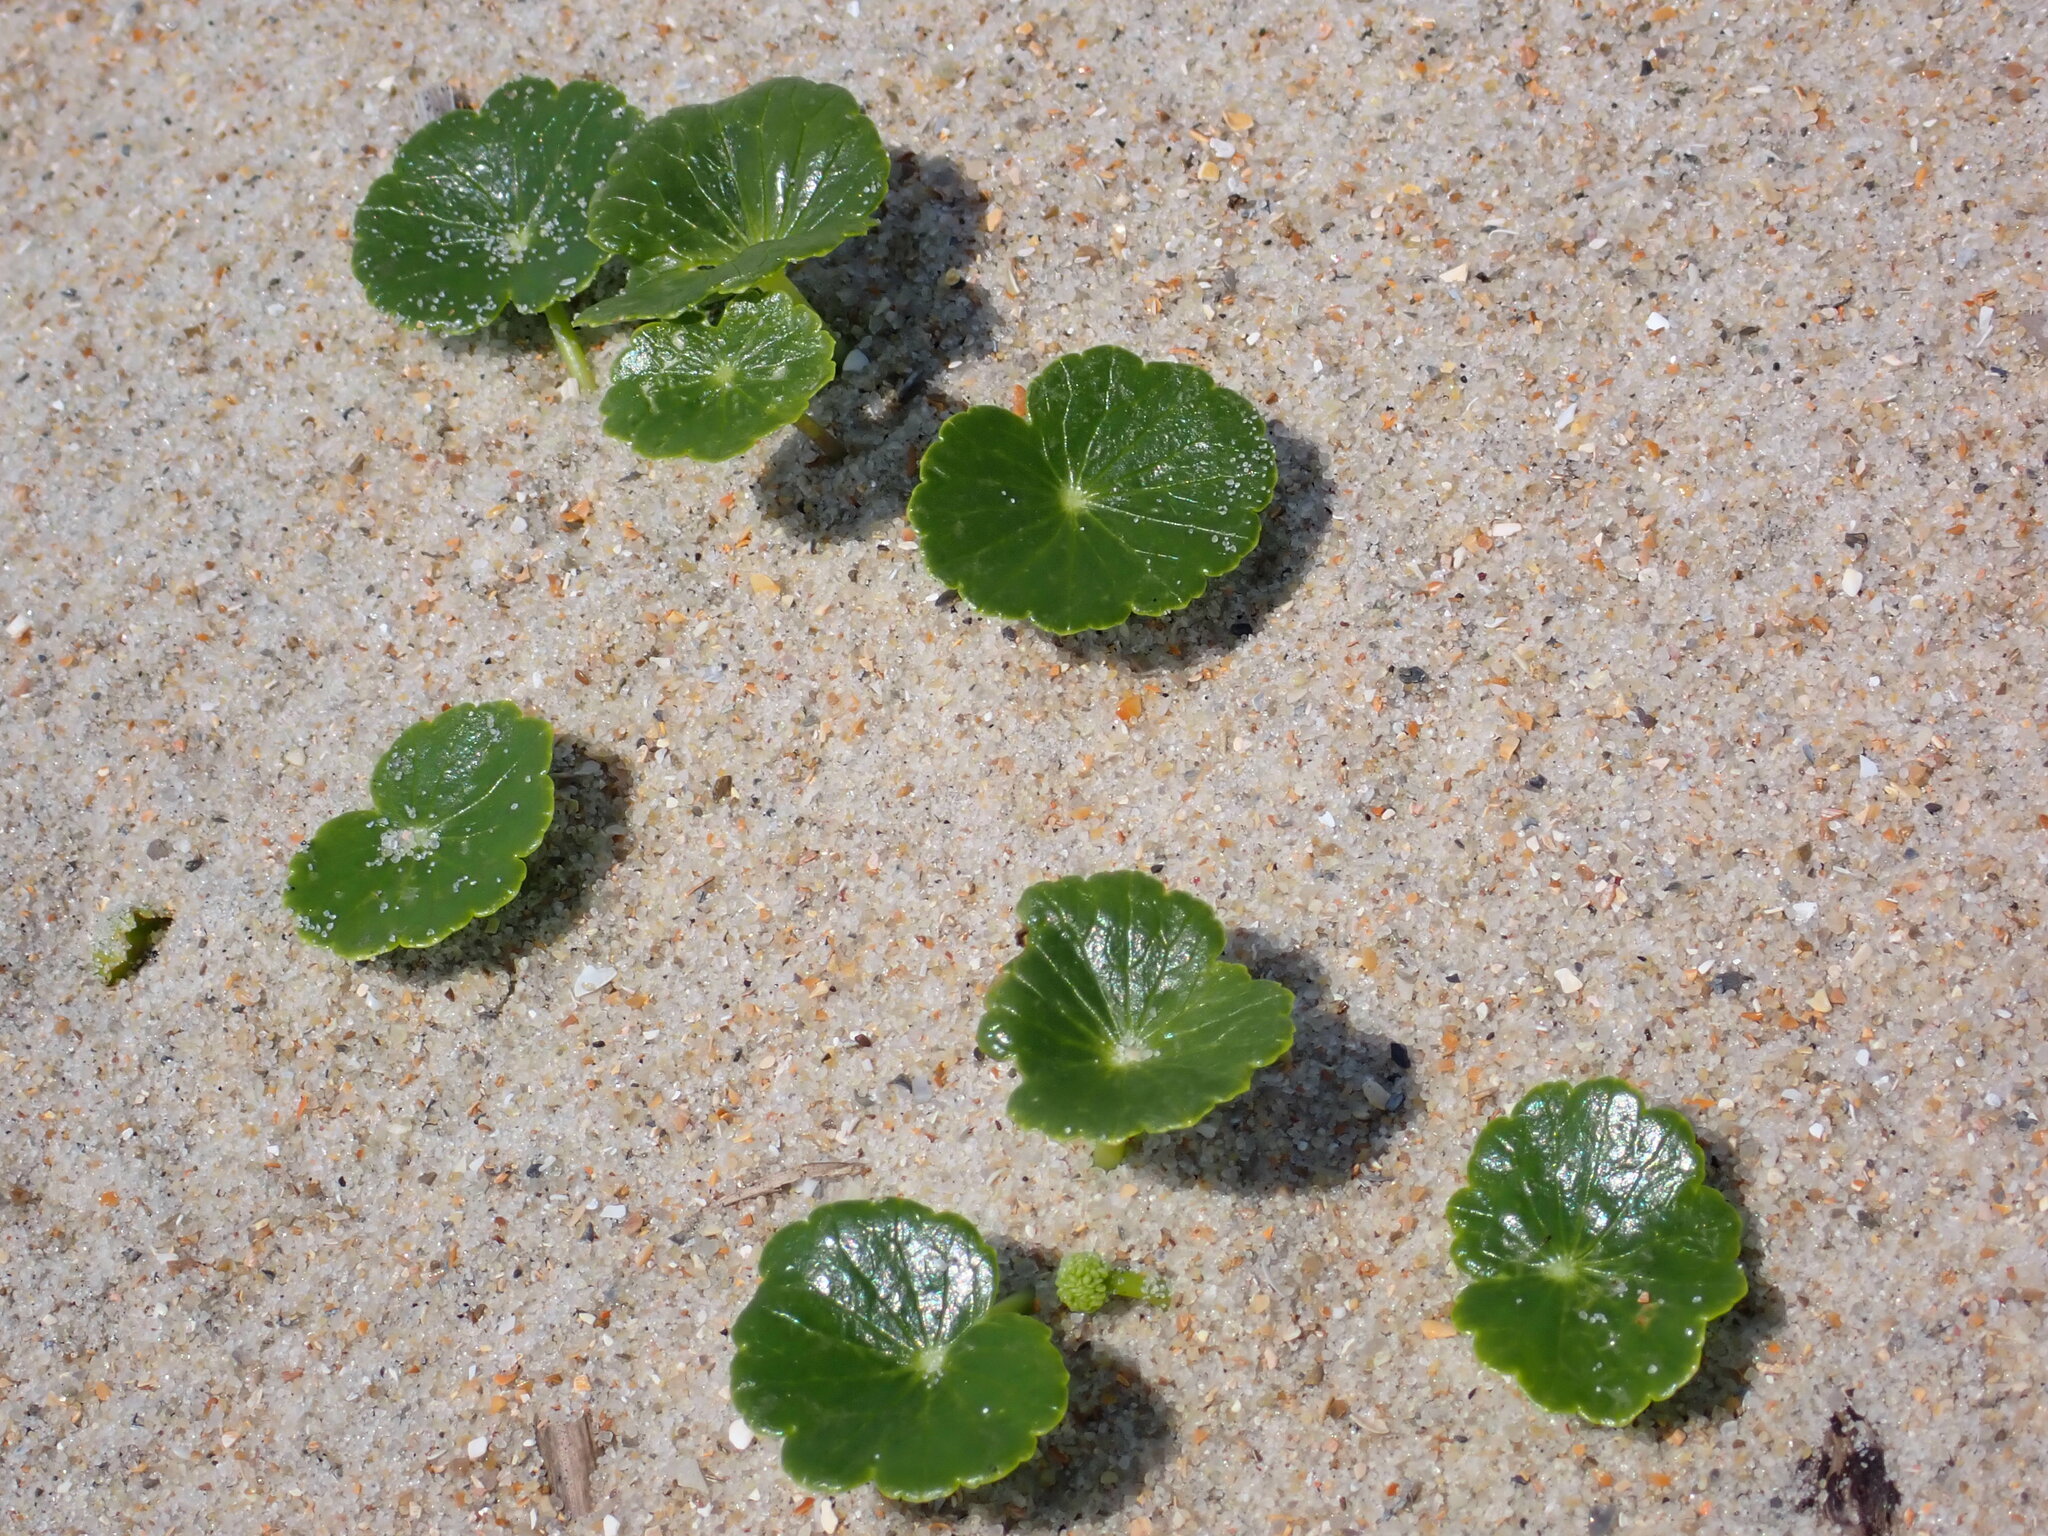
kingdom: Plantae
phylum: Tracheophyta
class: Magnoliopsida
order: Apiales
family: Araliaceae
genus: Hydrocotyle
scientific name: Hydrocotyle bonariensis
